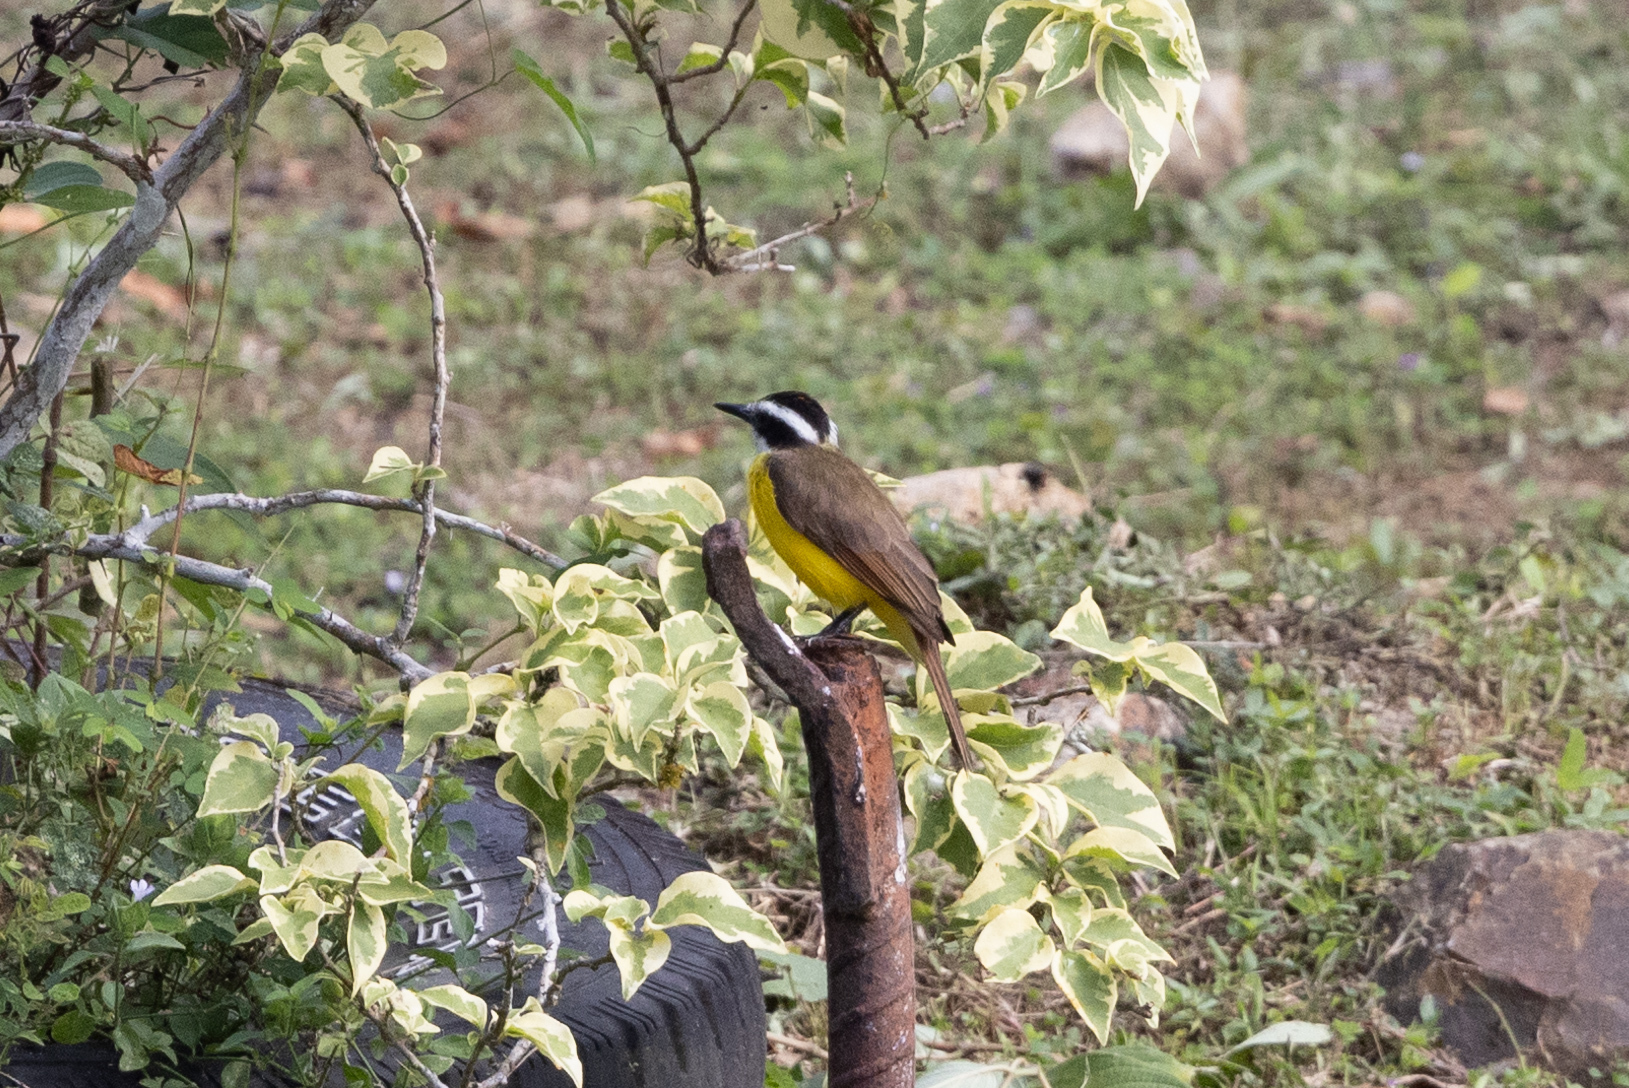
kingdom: Animalia
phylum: Chordata
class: Aves
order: Passeriformes
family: Tyrannidae
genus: Pitangus
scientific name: Pitangus lictor
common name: Lesser kiskadee
